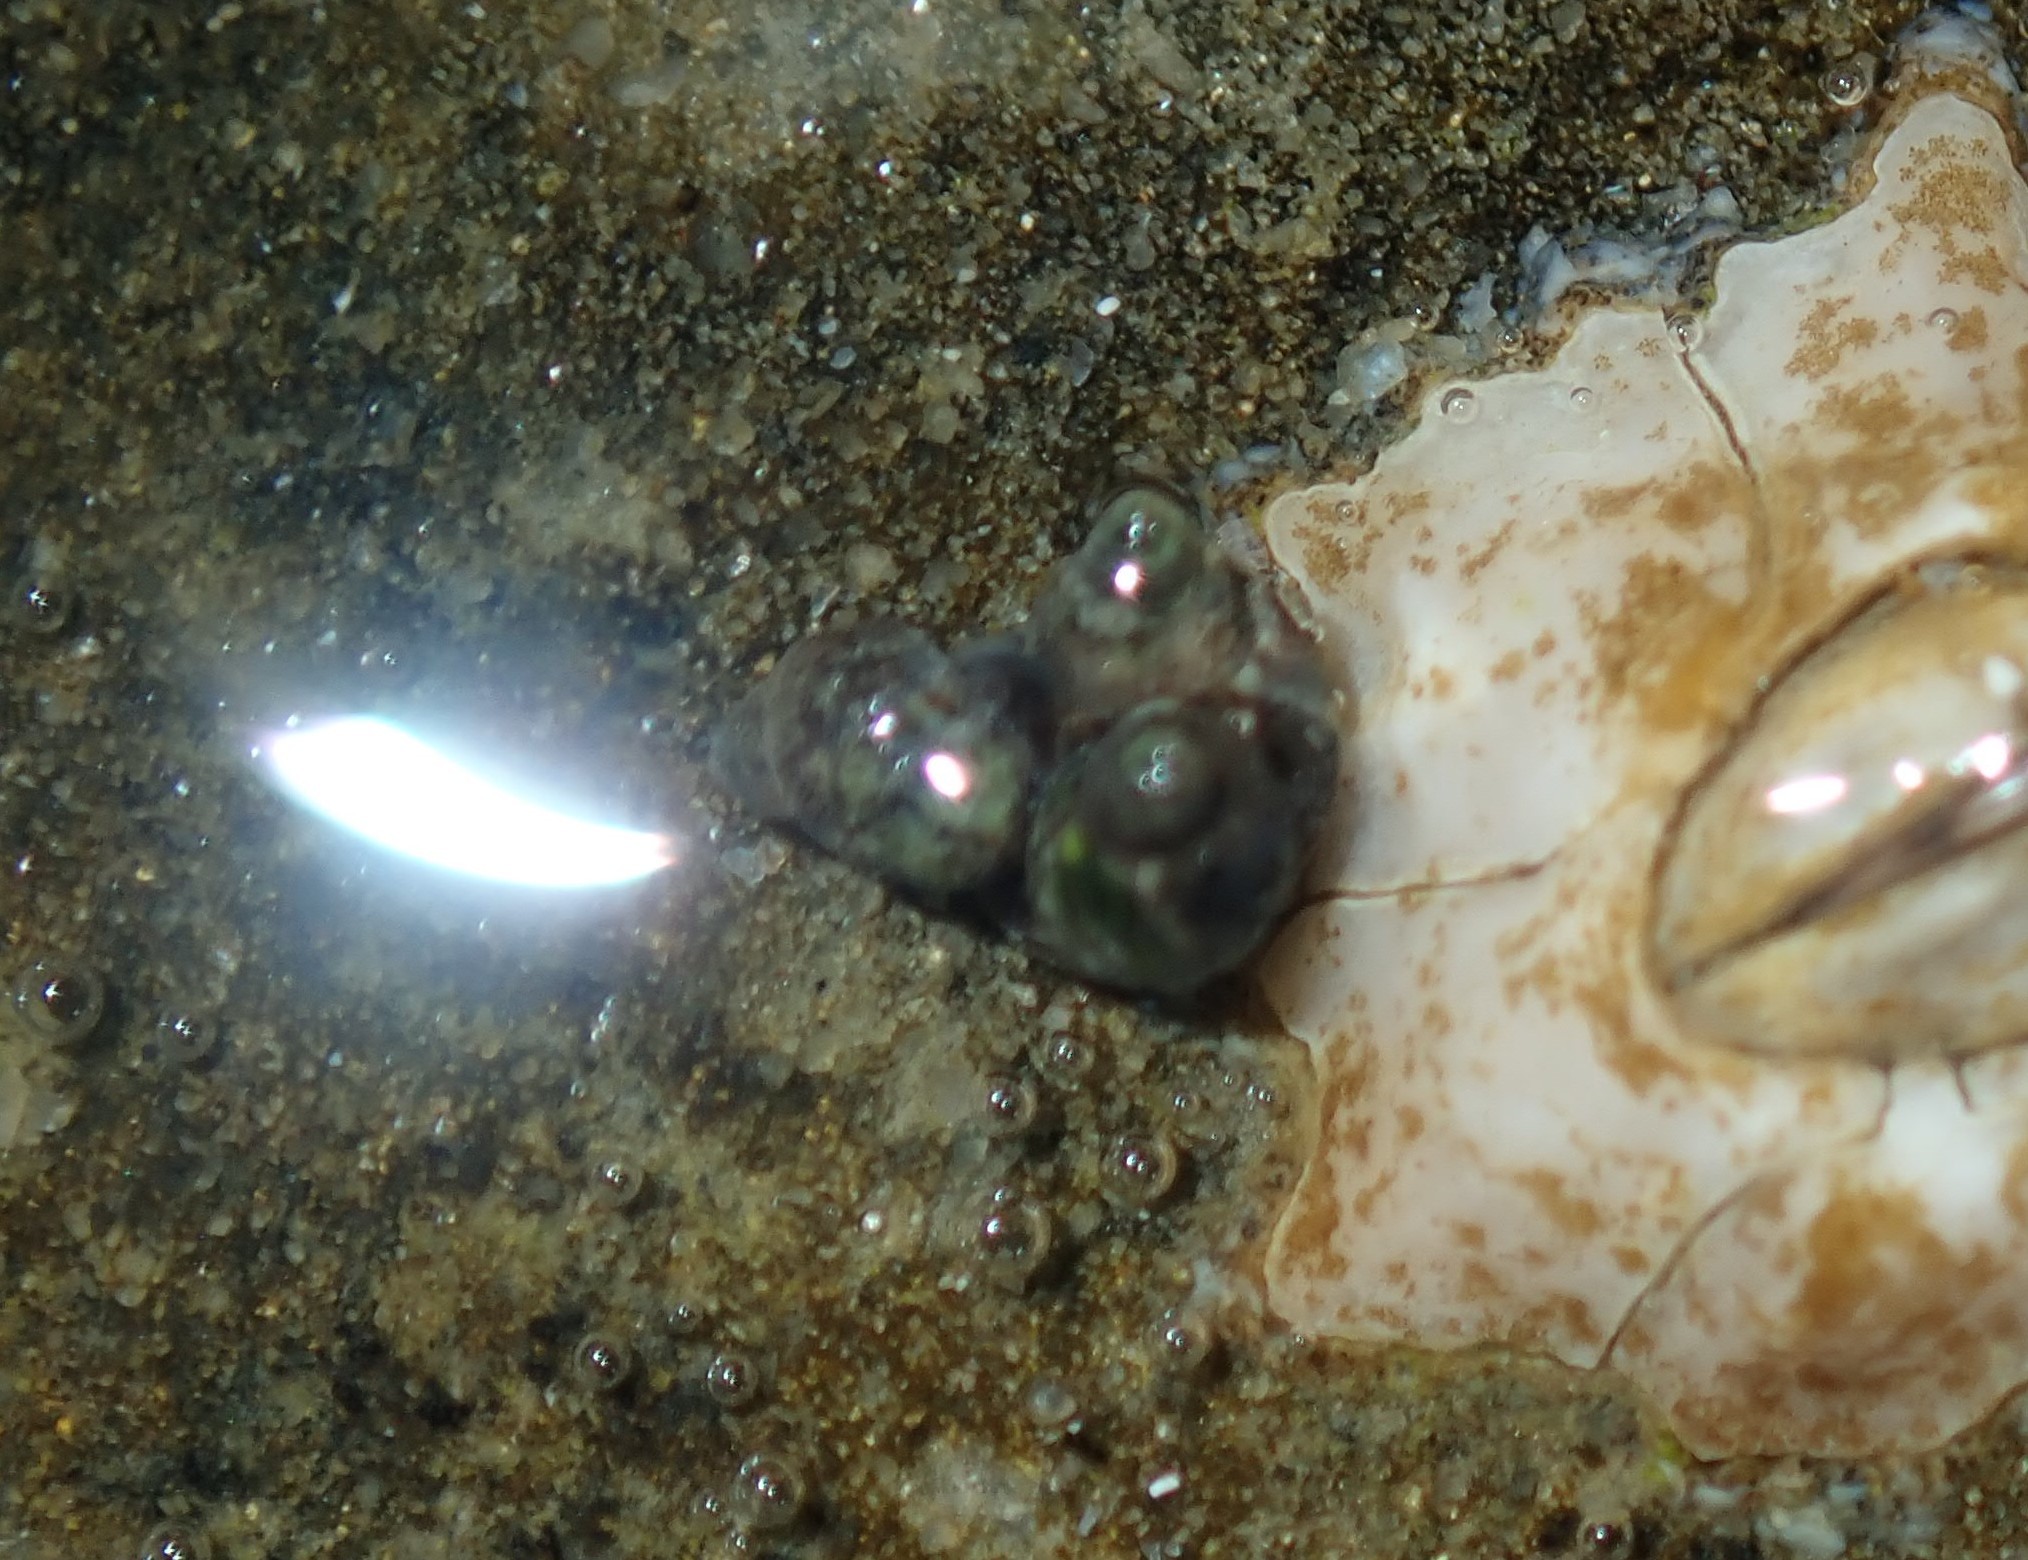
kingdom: Animalia
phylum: Mollusca
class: Gastropoda
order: Littorinimorpha
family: Littorinidae
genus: Afrolittorina
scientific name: Afrolittorina acutispira
